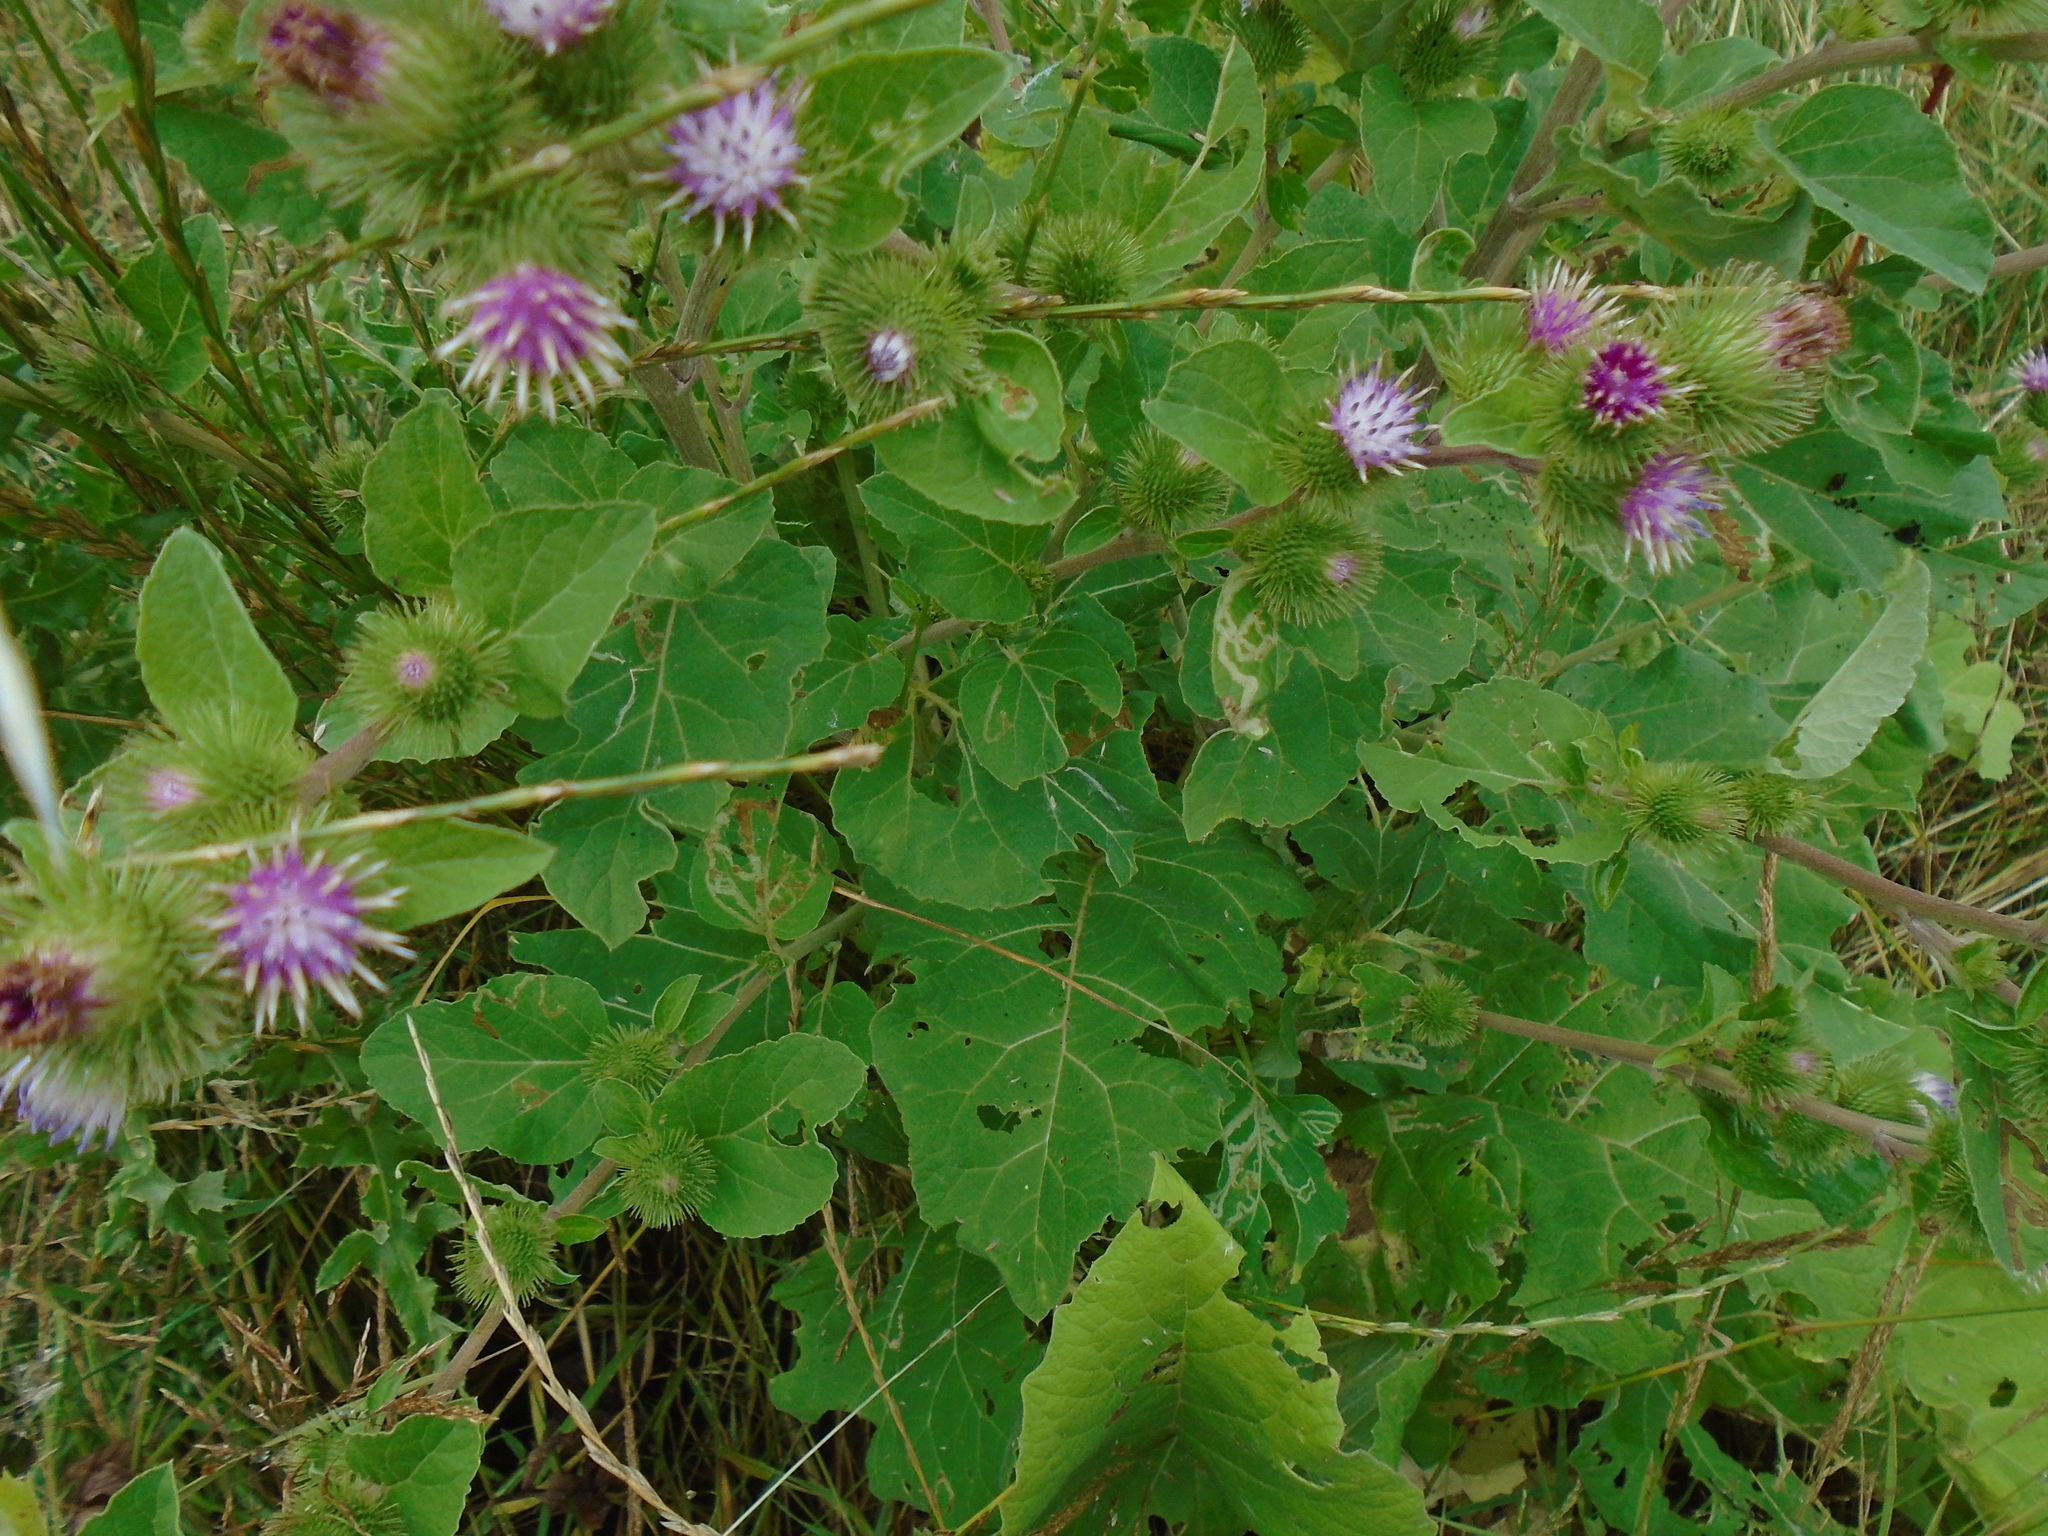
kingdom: Plantae
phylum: Tracheophyta
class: Magnoliopsida
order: Asterales
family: Asteraceae
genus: Arctium
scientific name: Arctium minus
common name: Lesser burdock
